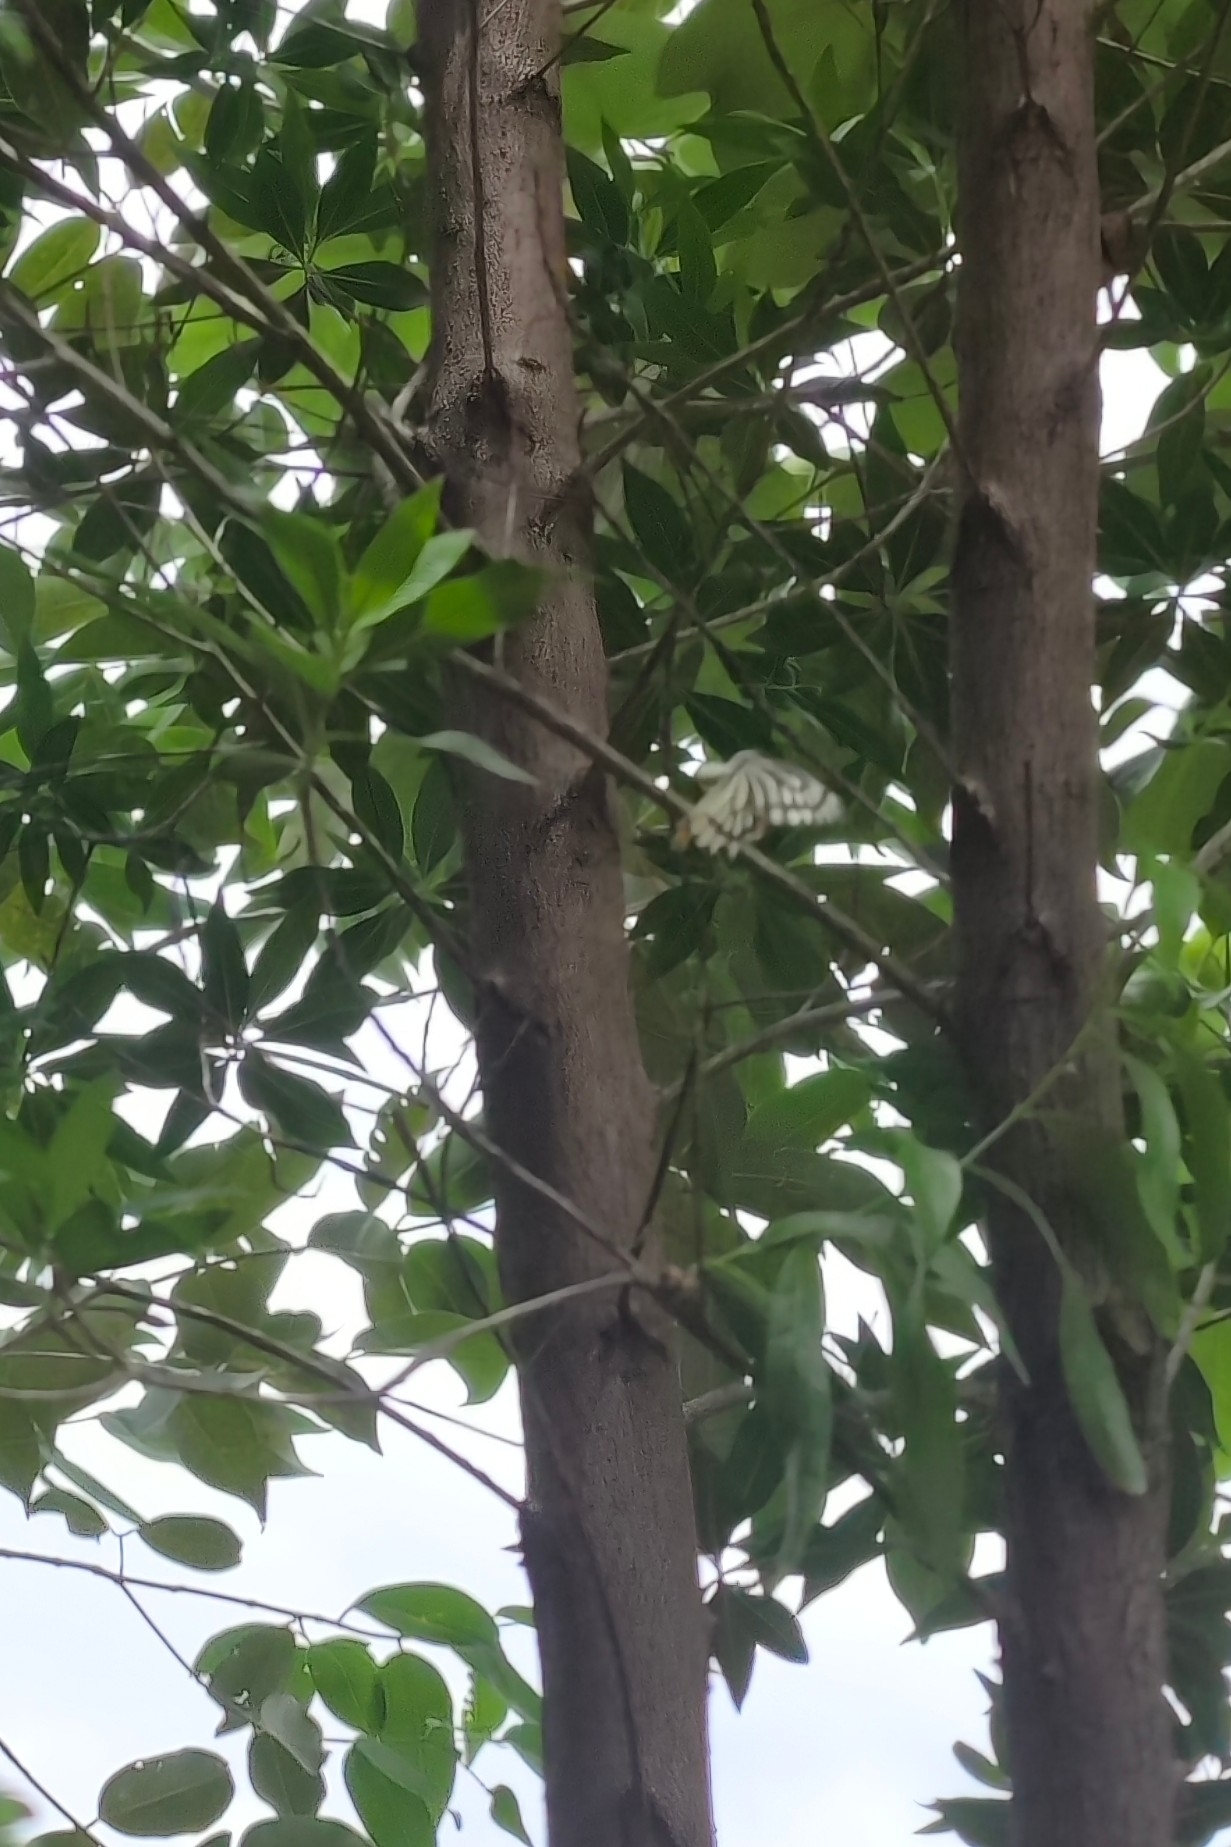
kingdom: Animalia
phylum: Arthropoda
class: Insecta
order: Lepidoptera
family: Pieridae
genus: Delias
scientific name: Delias eucharis
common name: Common jezebel
